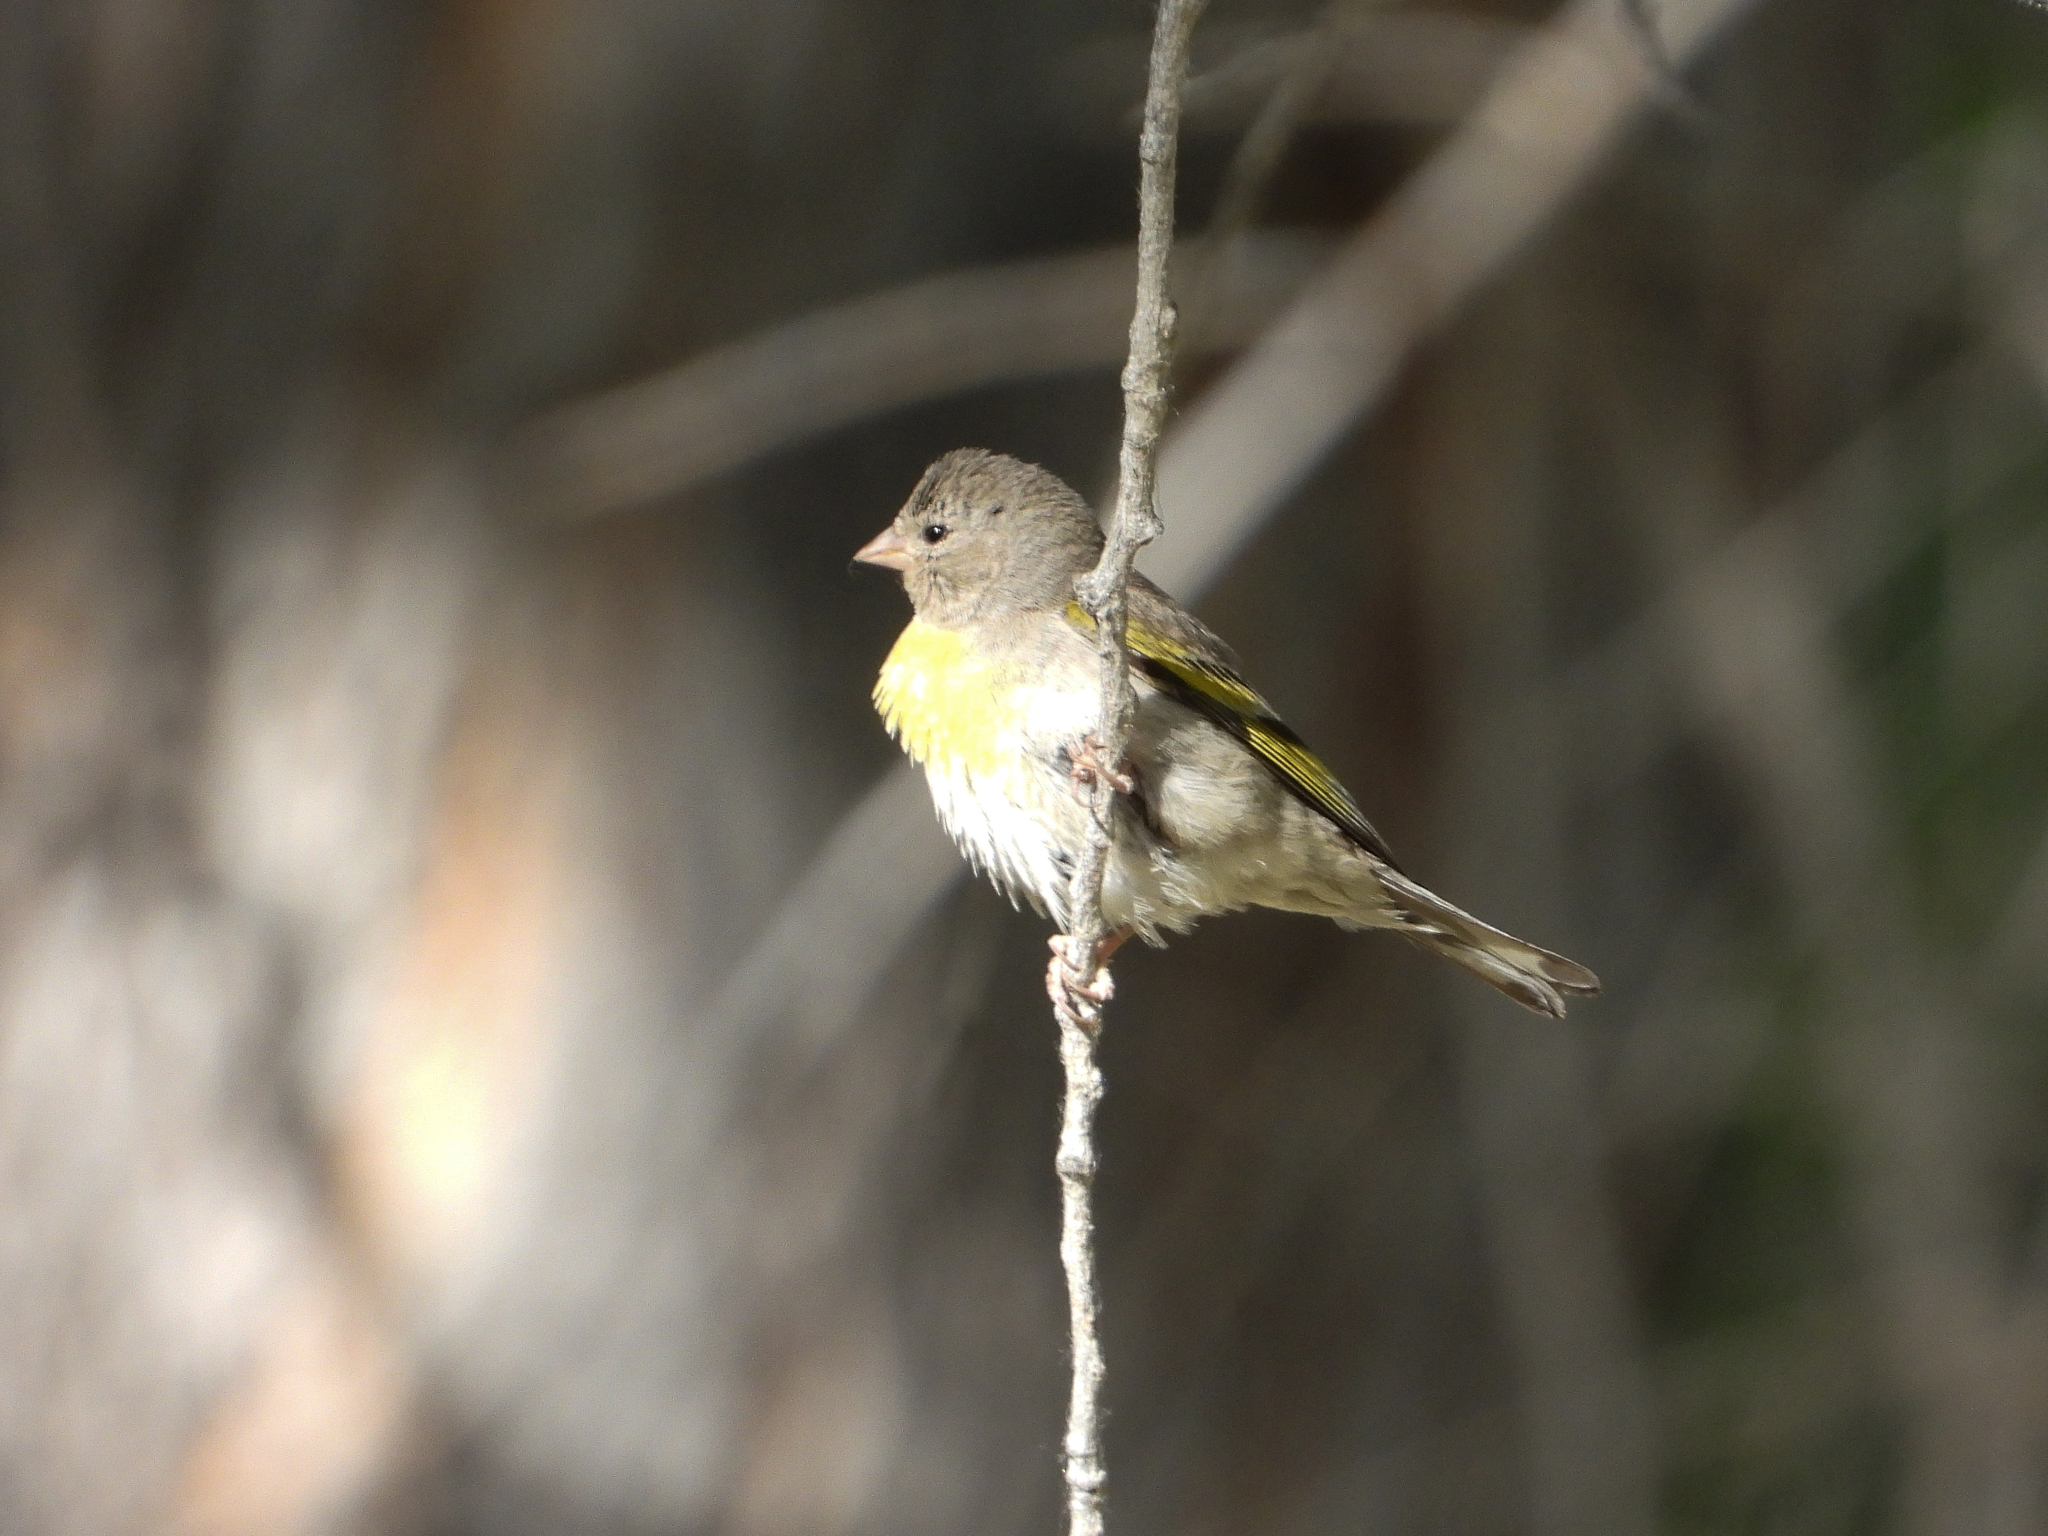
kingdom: Animalia
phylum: Chordata
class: Aves
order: Passeriformes
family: Fringillidae
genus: Spinus
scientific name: Spinus lawrencei
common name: Lawrence's goldfinch
